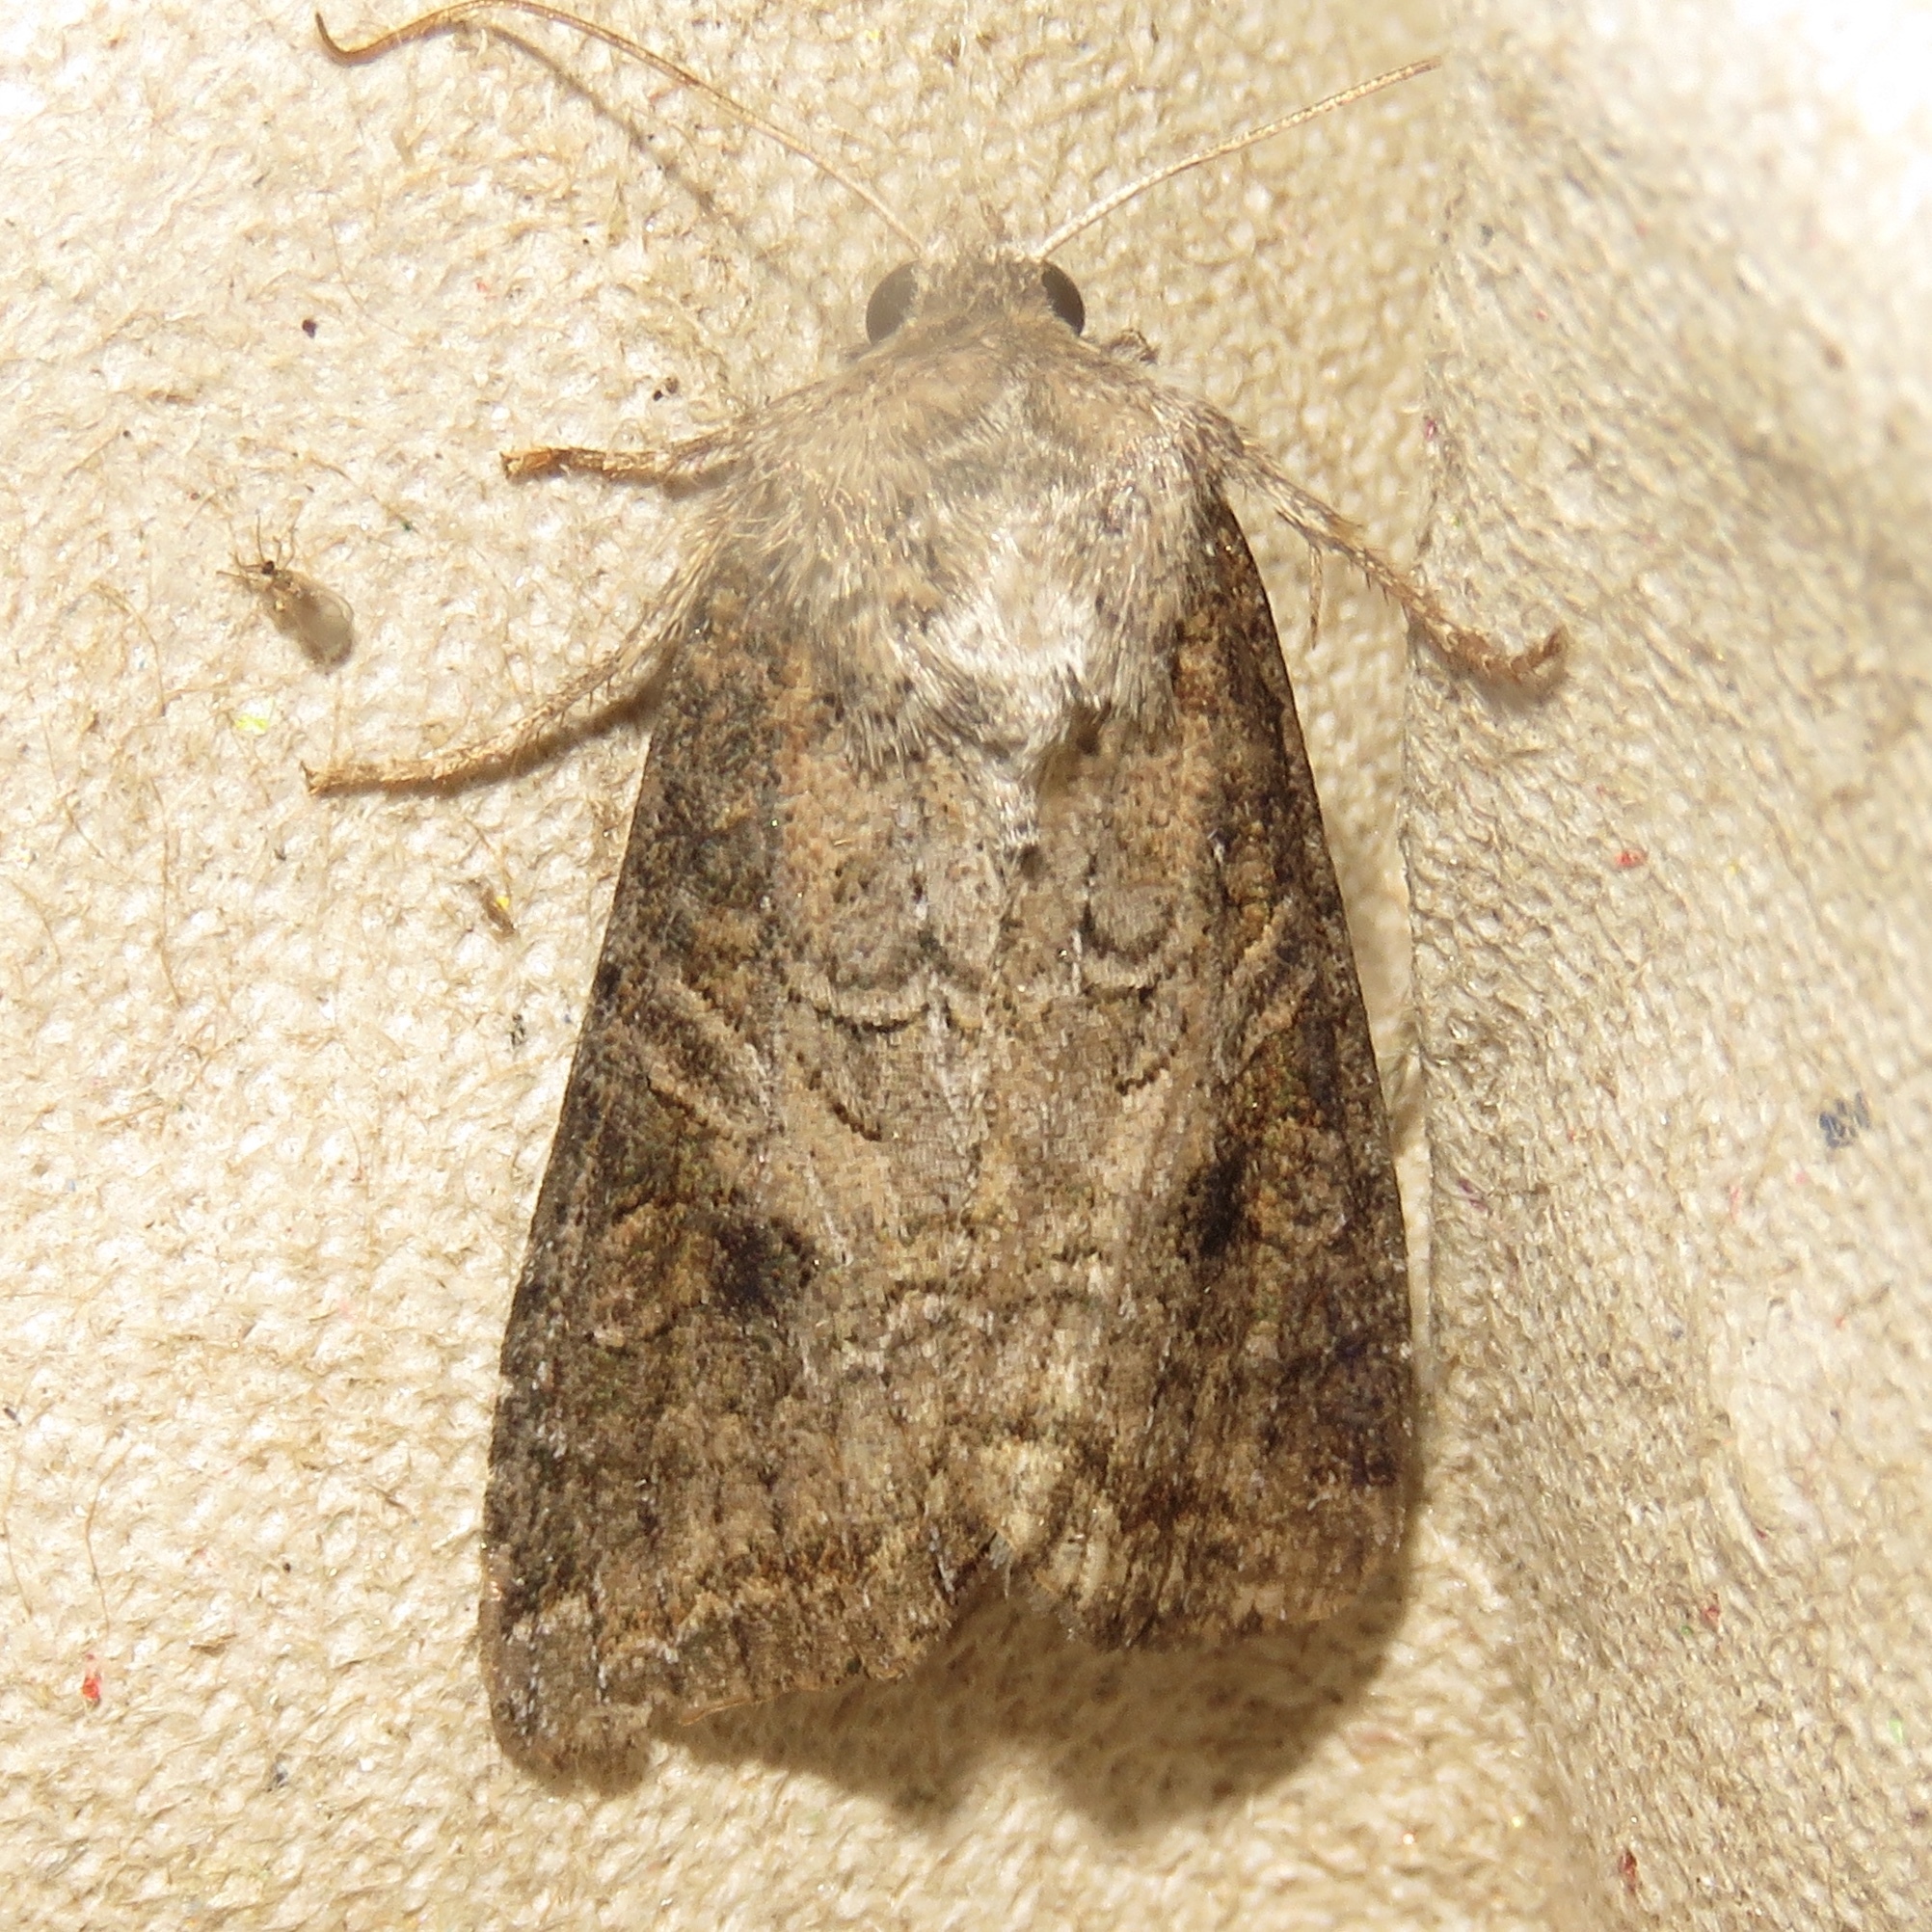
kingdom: Animalia
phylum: Arthropoda
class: Insecta
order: Lepidoptera
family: Noctuidae
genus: Trichordestra
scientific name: Trichordestra lilacina
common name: Aster cutworm
